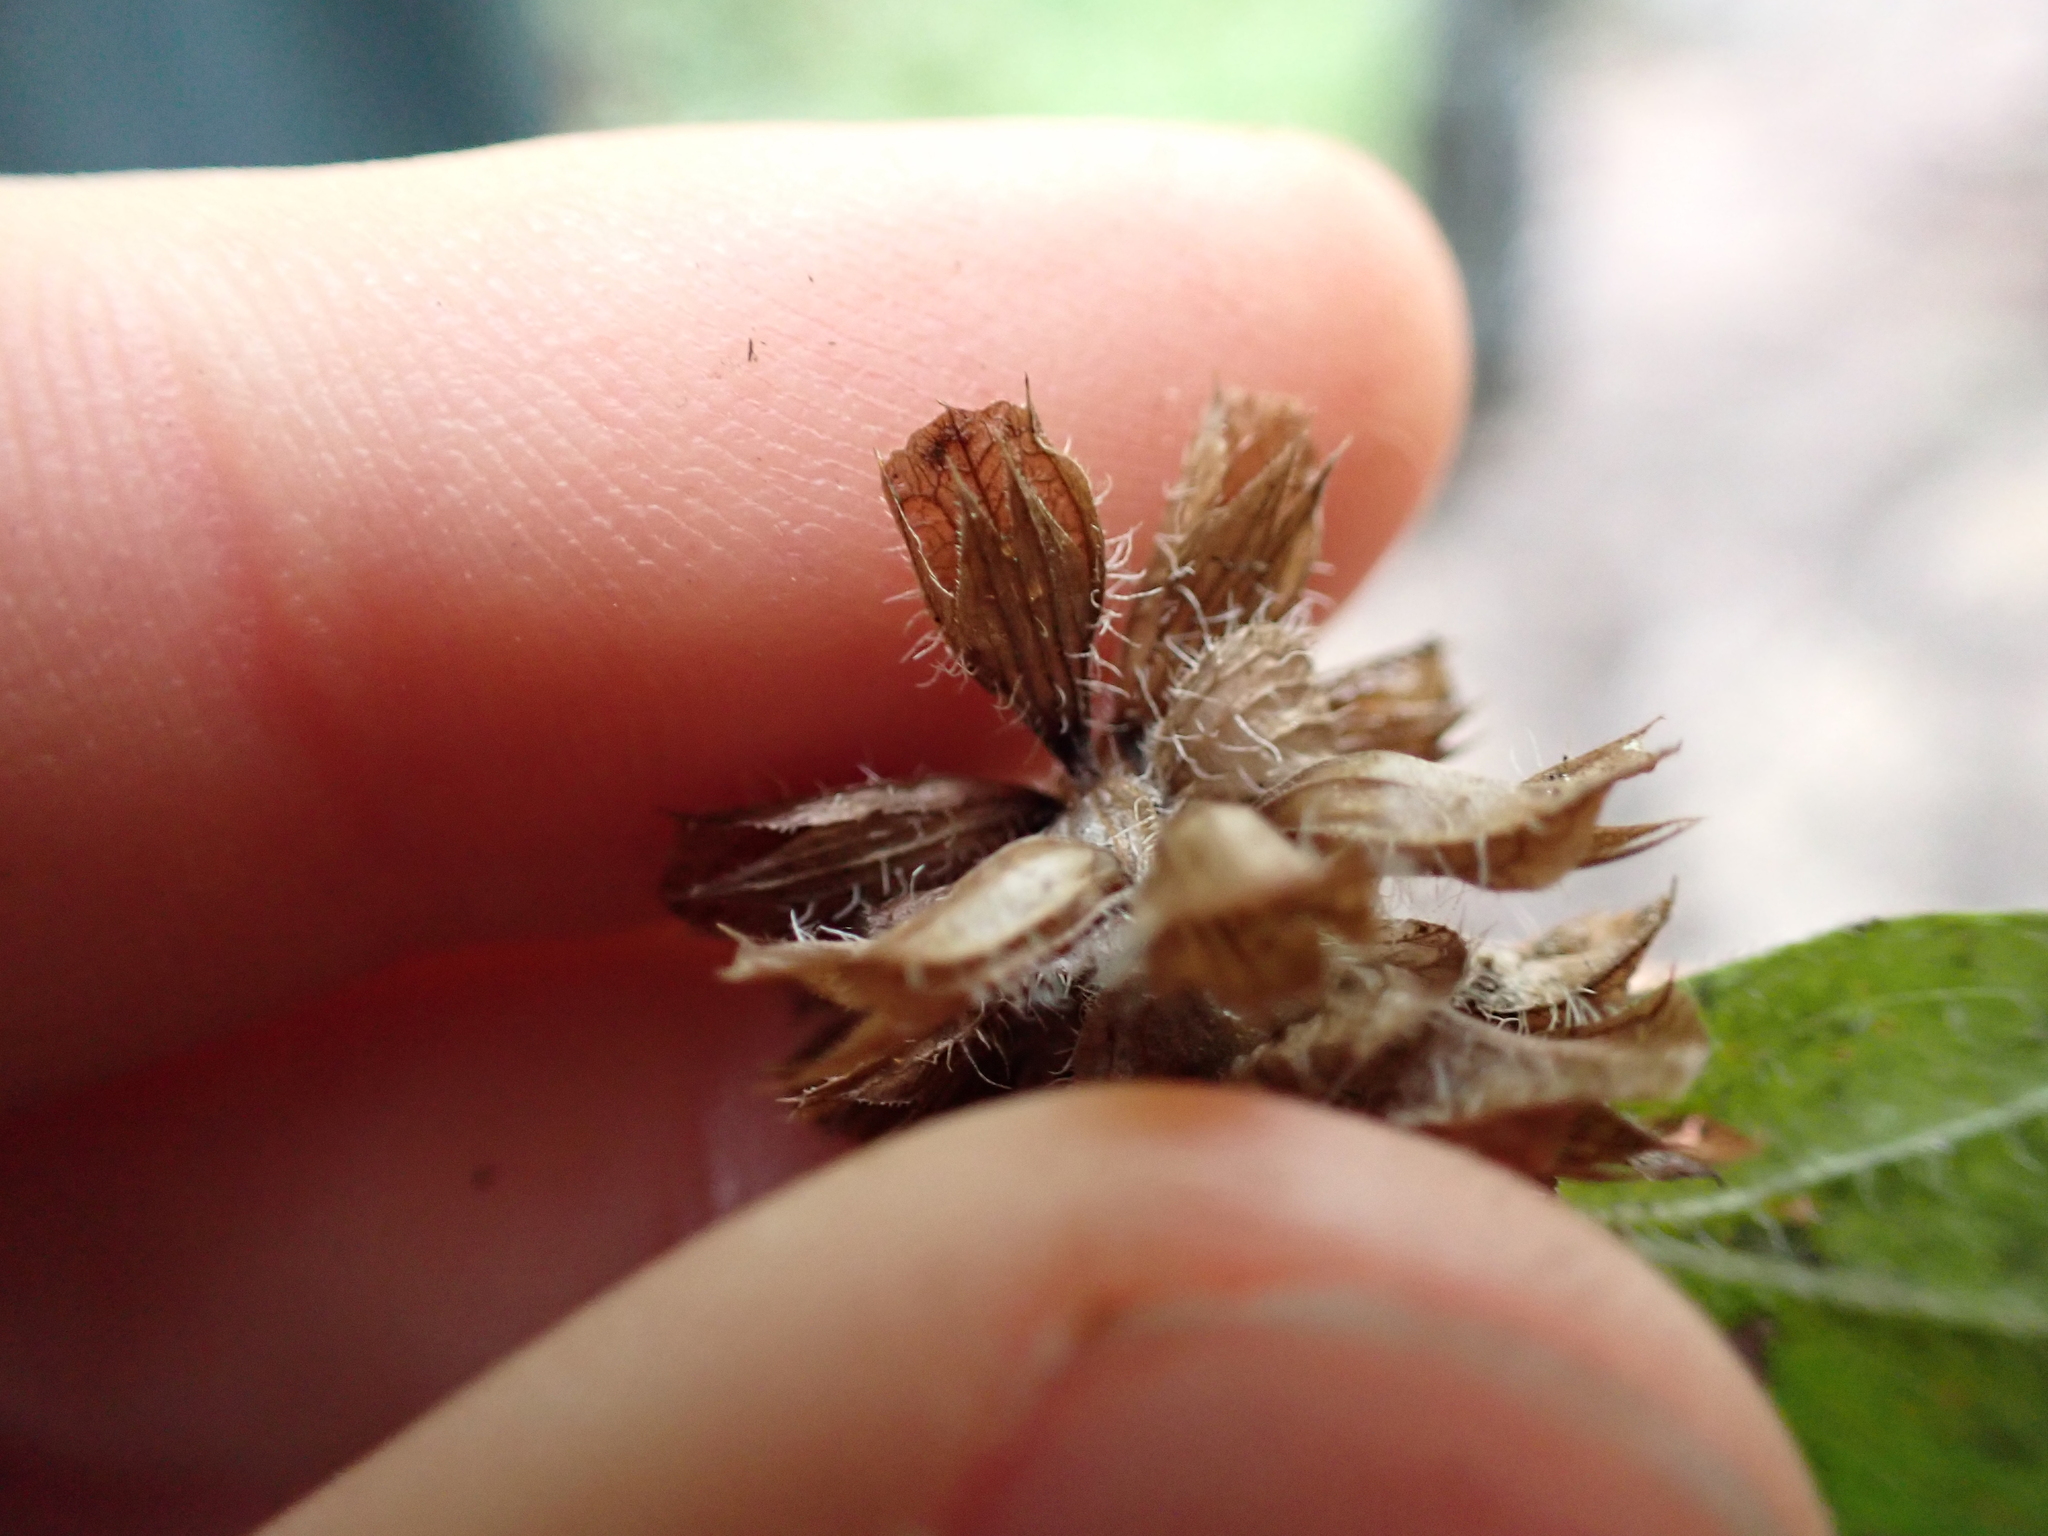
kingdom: Plantae
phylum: Tracheophyta
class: Magnoliopsida
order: Lamiales
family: Lamiaceae
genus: Prunella
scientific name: Prunella vulgaris
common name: Heal-all
